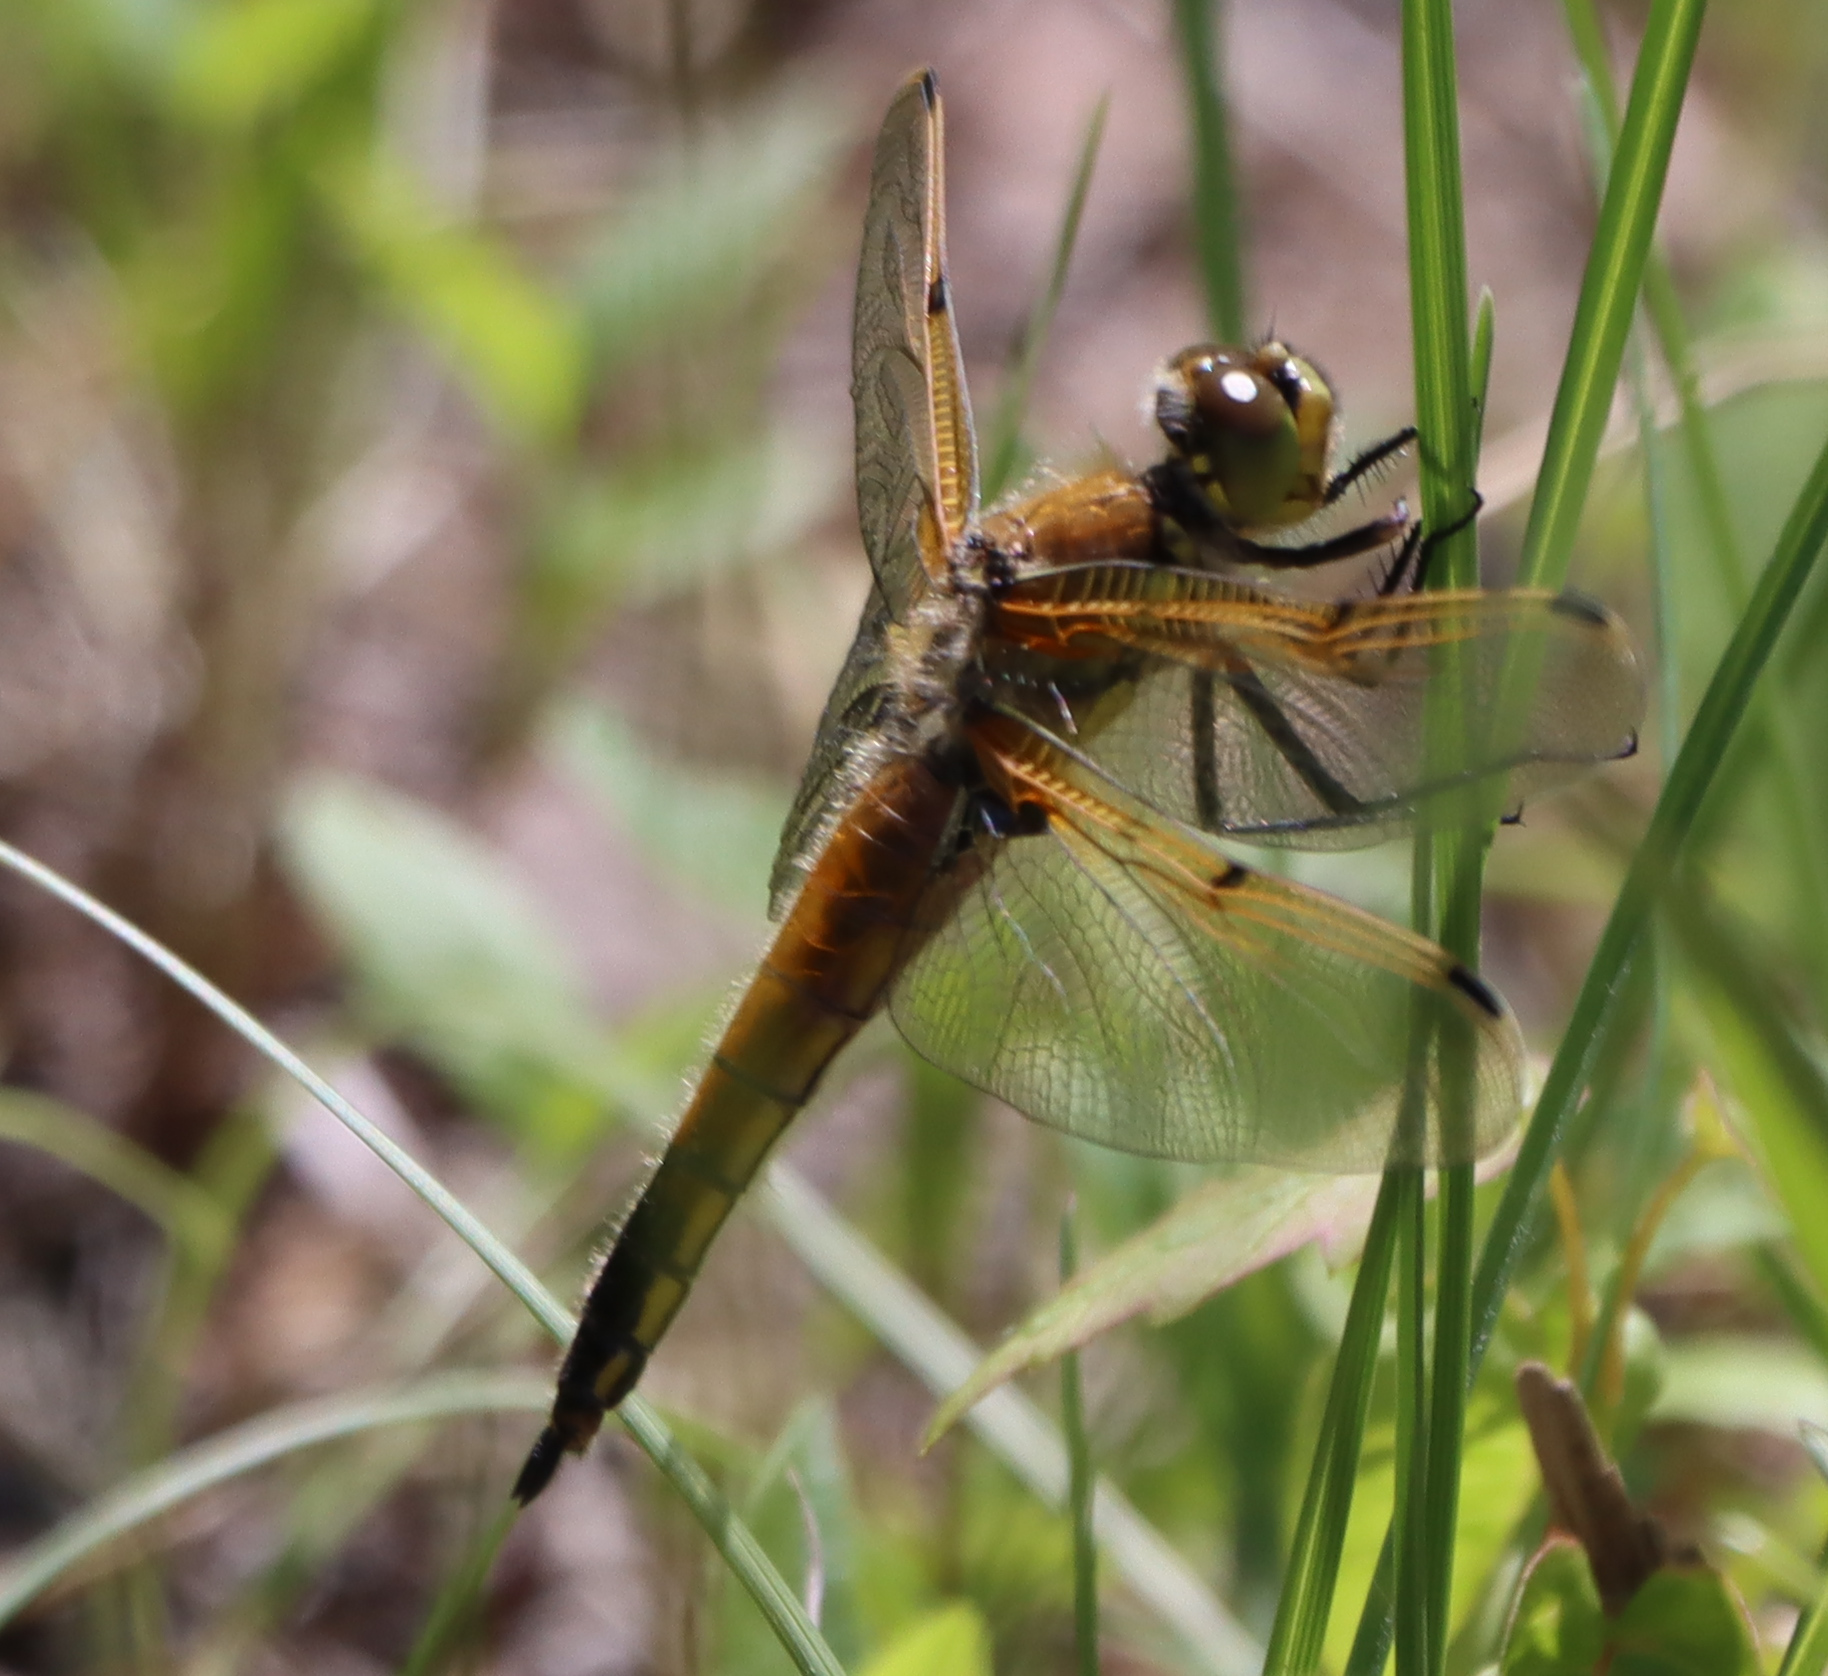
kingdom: Animalia
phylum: Arthropoda
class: Insecta
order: Odonata
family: Libellulidae
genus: Libellula
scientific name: Libellula quadrimaculata
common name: Four-spotted chaser
